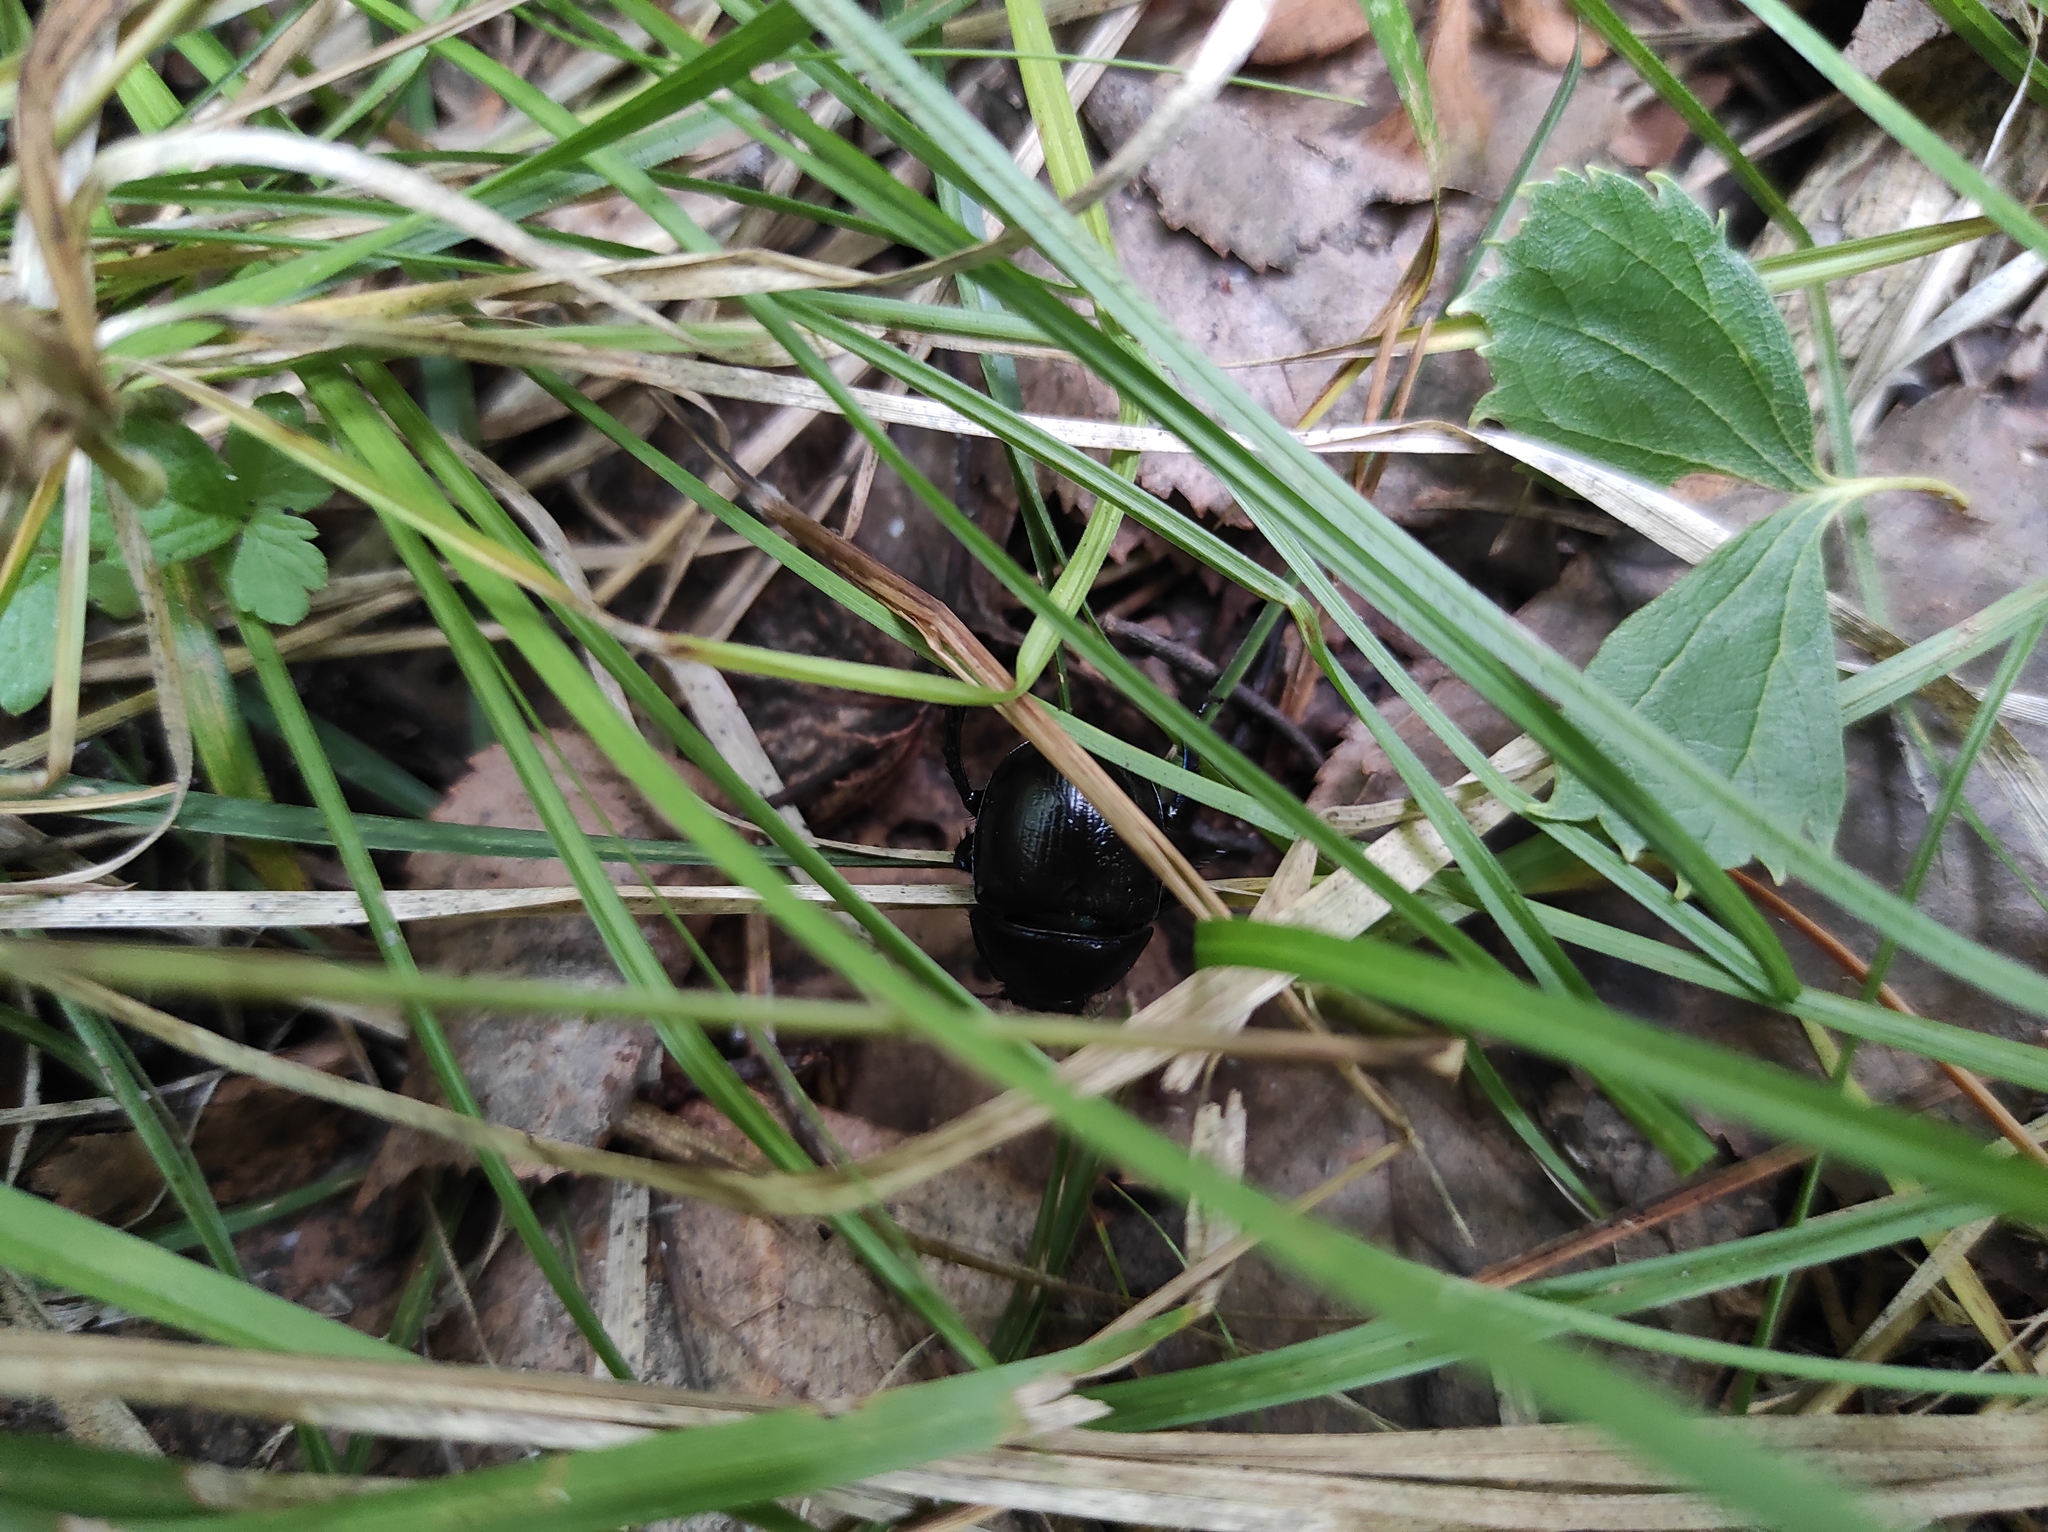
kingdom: Animalia
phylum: Arthropoda
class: Insecta
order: Coleoptera
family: Geotrupidae
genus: Anoplotrupes
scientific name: Anoplotrupes stercorosus
